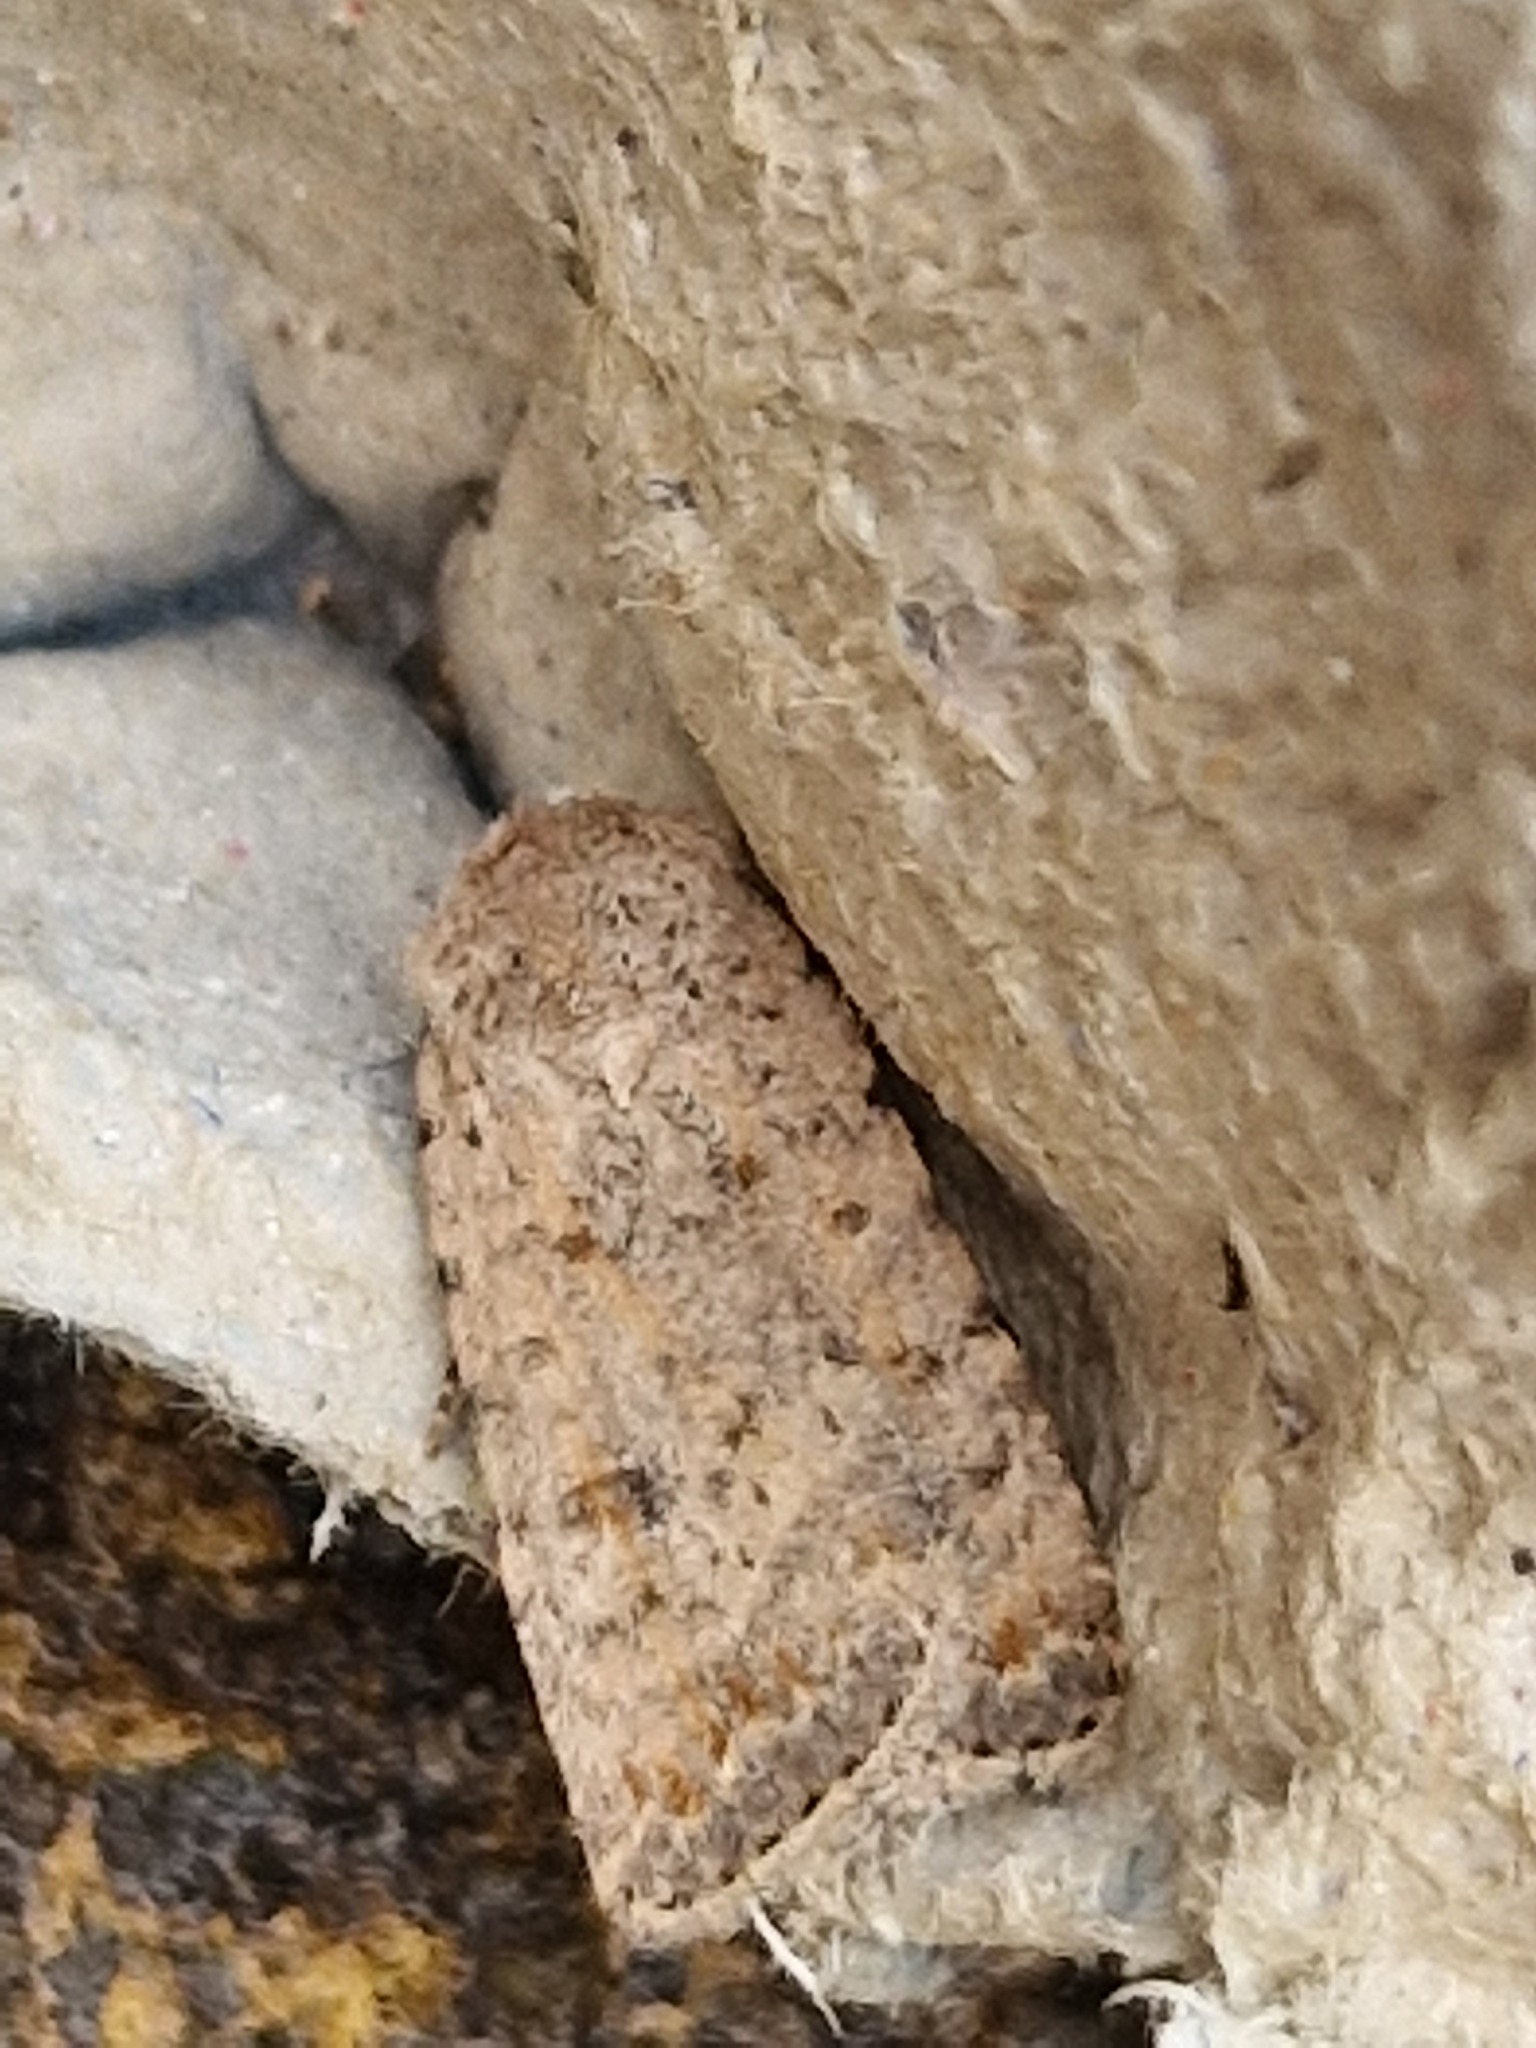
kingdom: Animalia
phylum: Arthropoda
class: Insecta
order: Lepidoptera
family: Noctuidae
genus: Caradrina
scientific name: Caradrina clavipalpis
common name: Pale mottled willow
